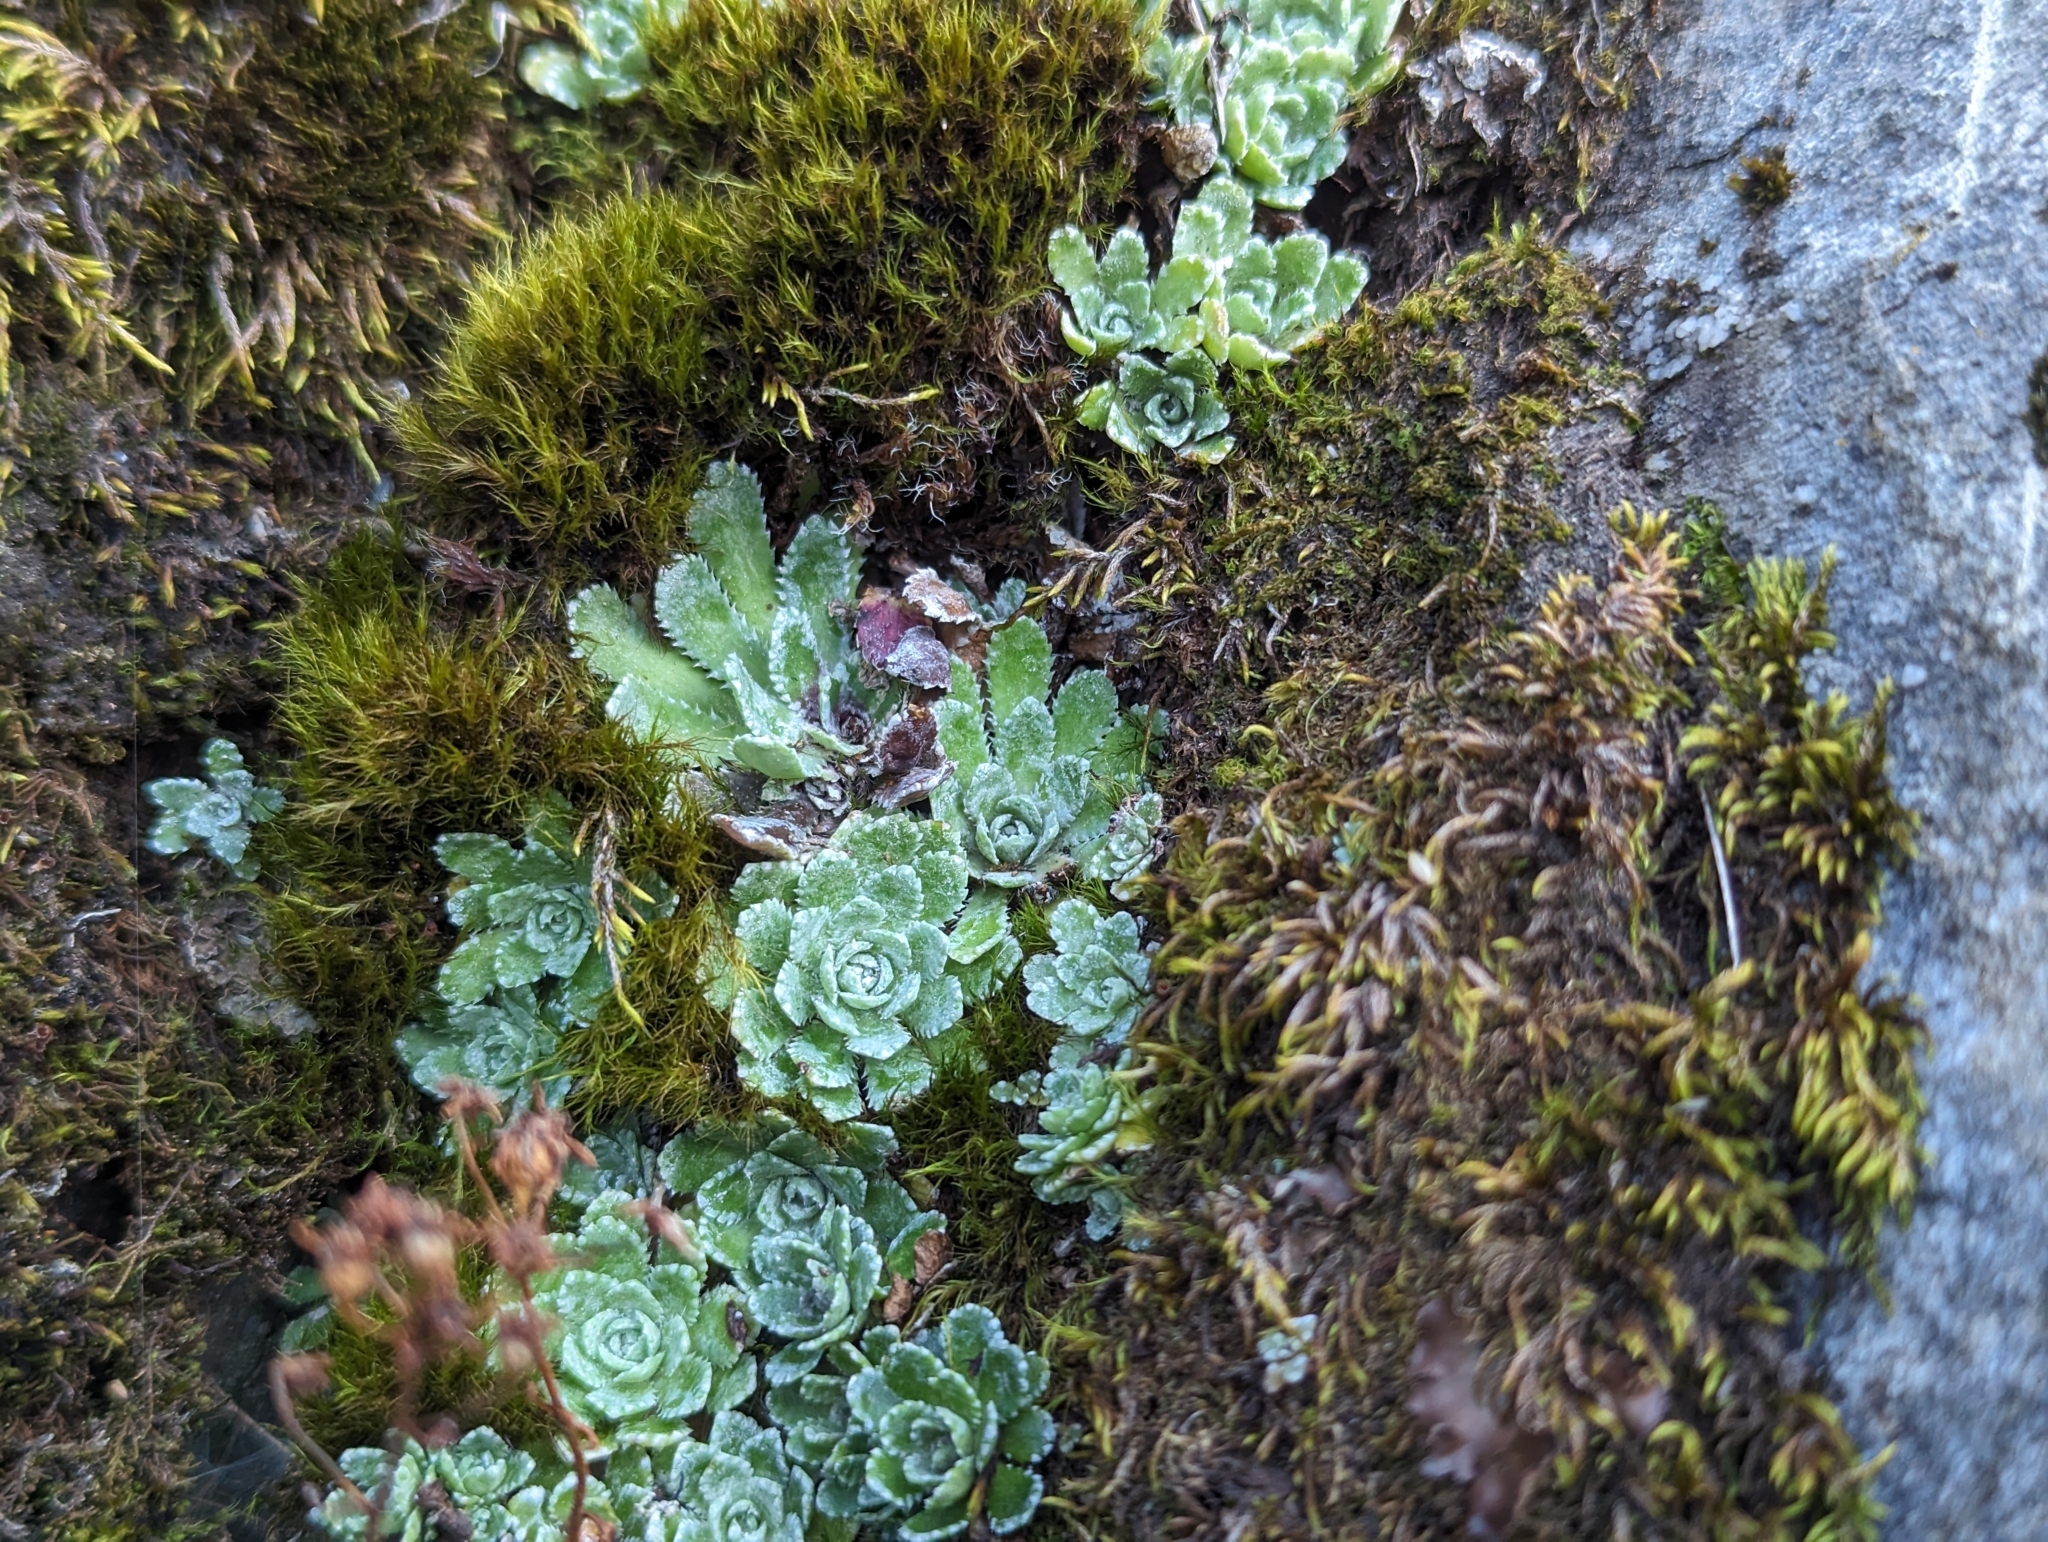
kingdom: Plantae
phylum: Tracheophyta
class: Magnoliopsida
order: Saxifragales
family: Saxifragaceae
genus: Saxifraga
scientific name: Saxifraga paniculata
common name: Livelong saxifrage
